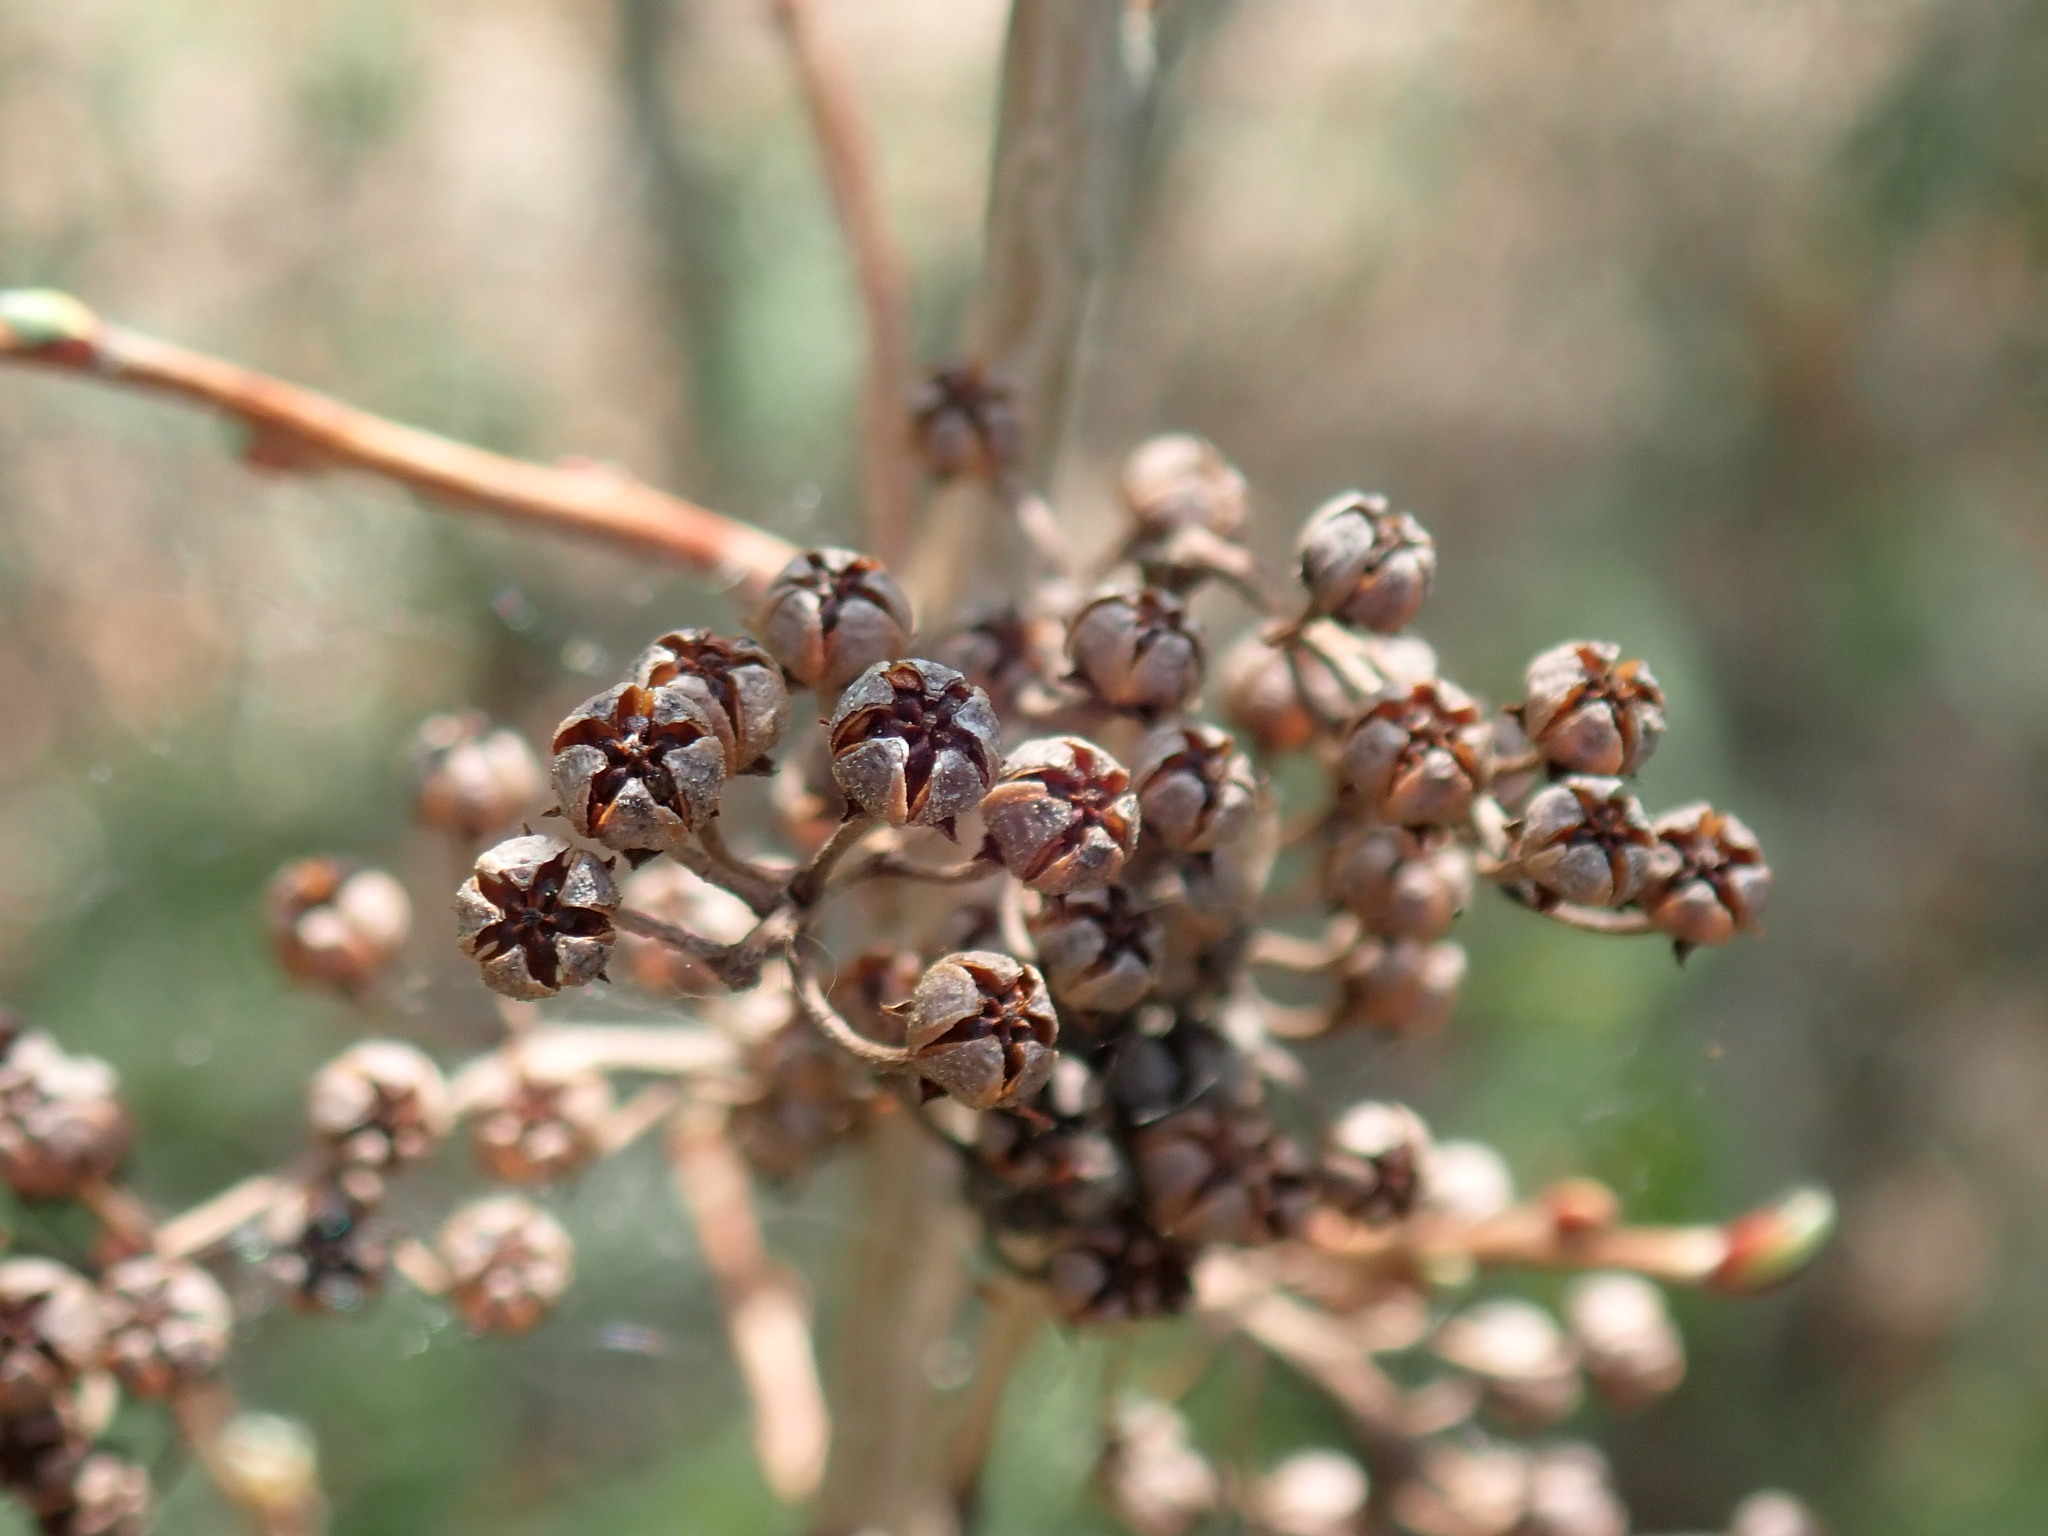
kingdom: Plantae
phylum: Tracheophyta
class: Magnoliopsida
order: Ericales
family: Ericaceae
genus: Lyonia
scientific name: Lyonia ligustrina
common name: Maleberry
